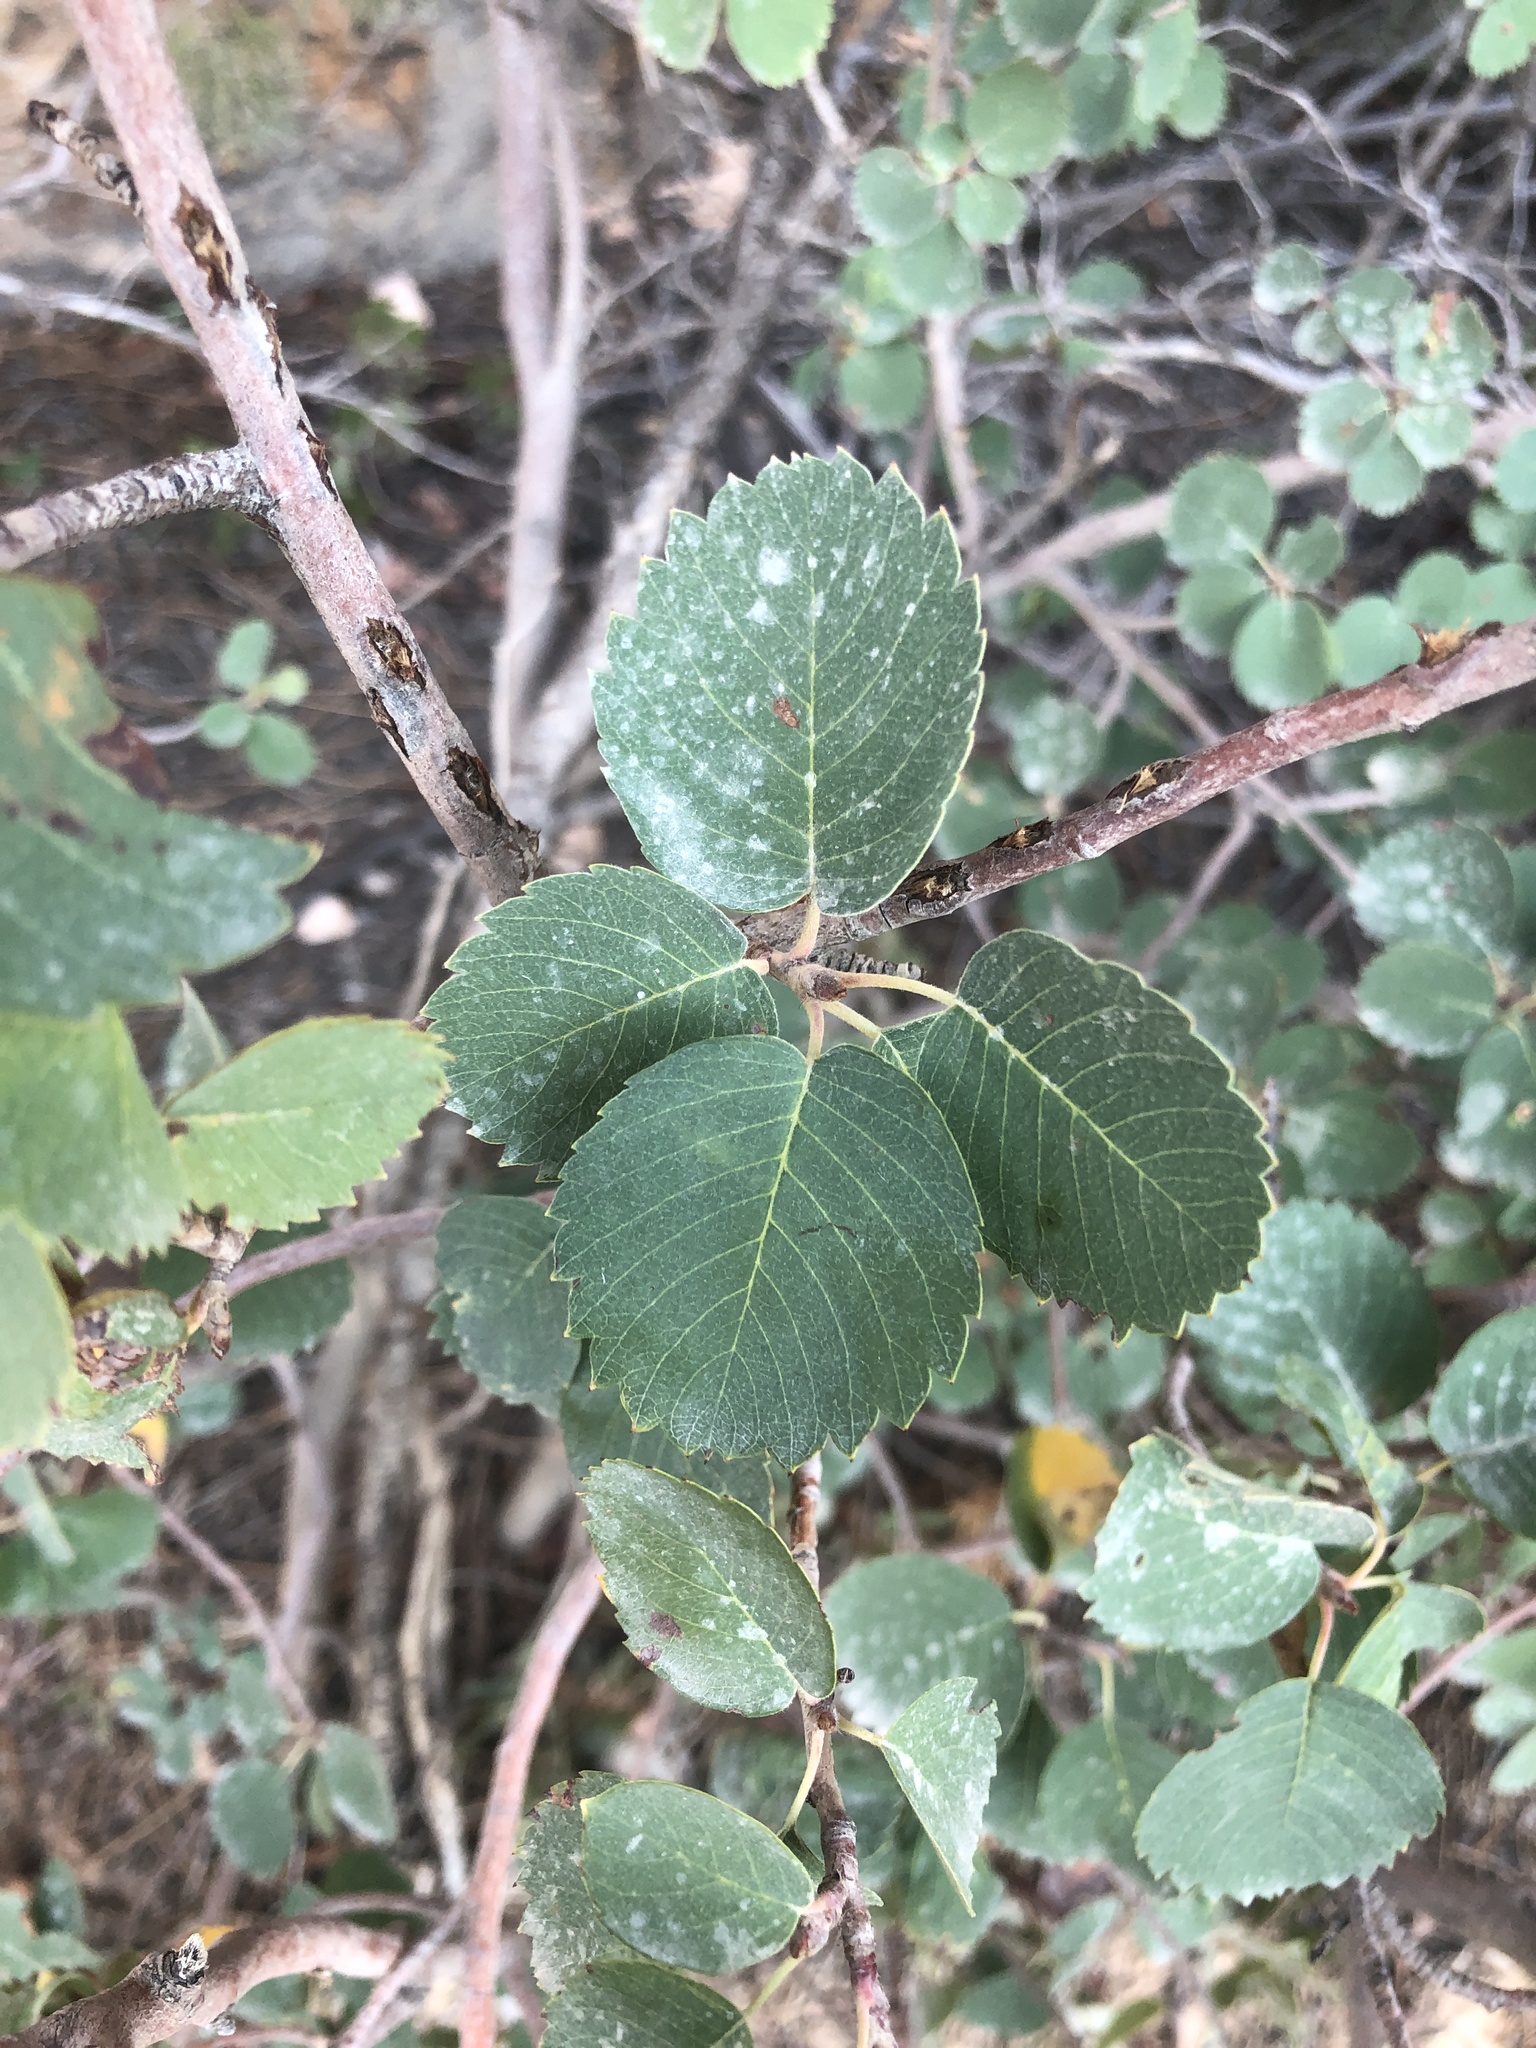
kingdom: Plantae
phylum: Tracheophyta
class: Magnoliopsida
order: Rosales
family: Rosaceae
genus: Amelanchier
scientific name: Amelanchier utahensis
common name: Utah serviceberry
